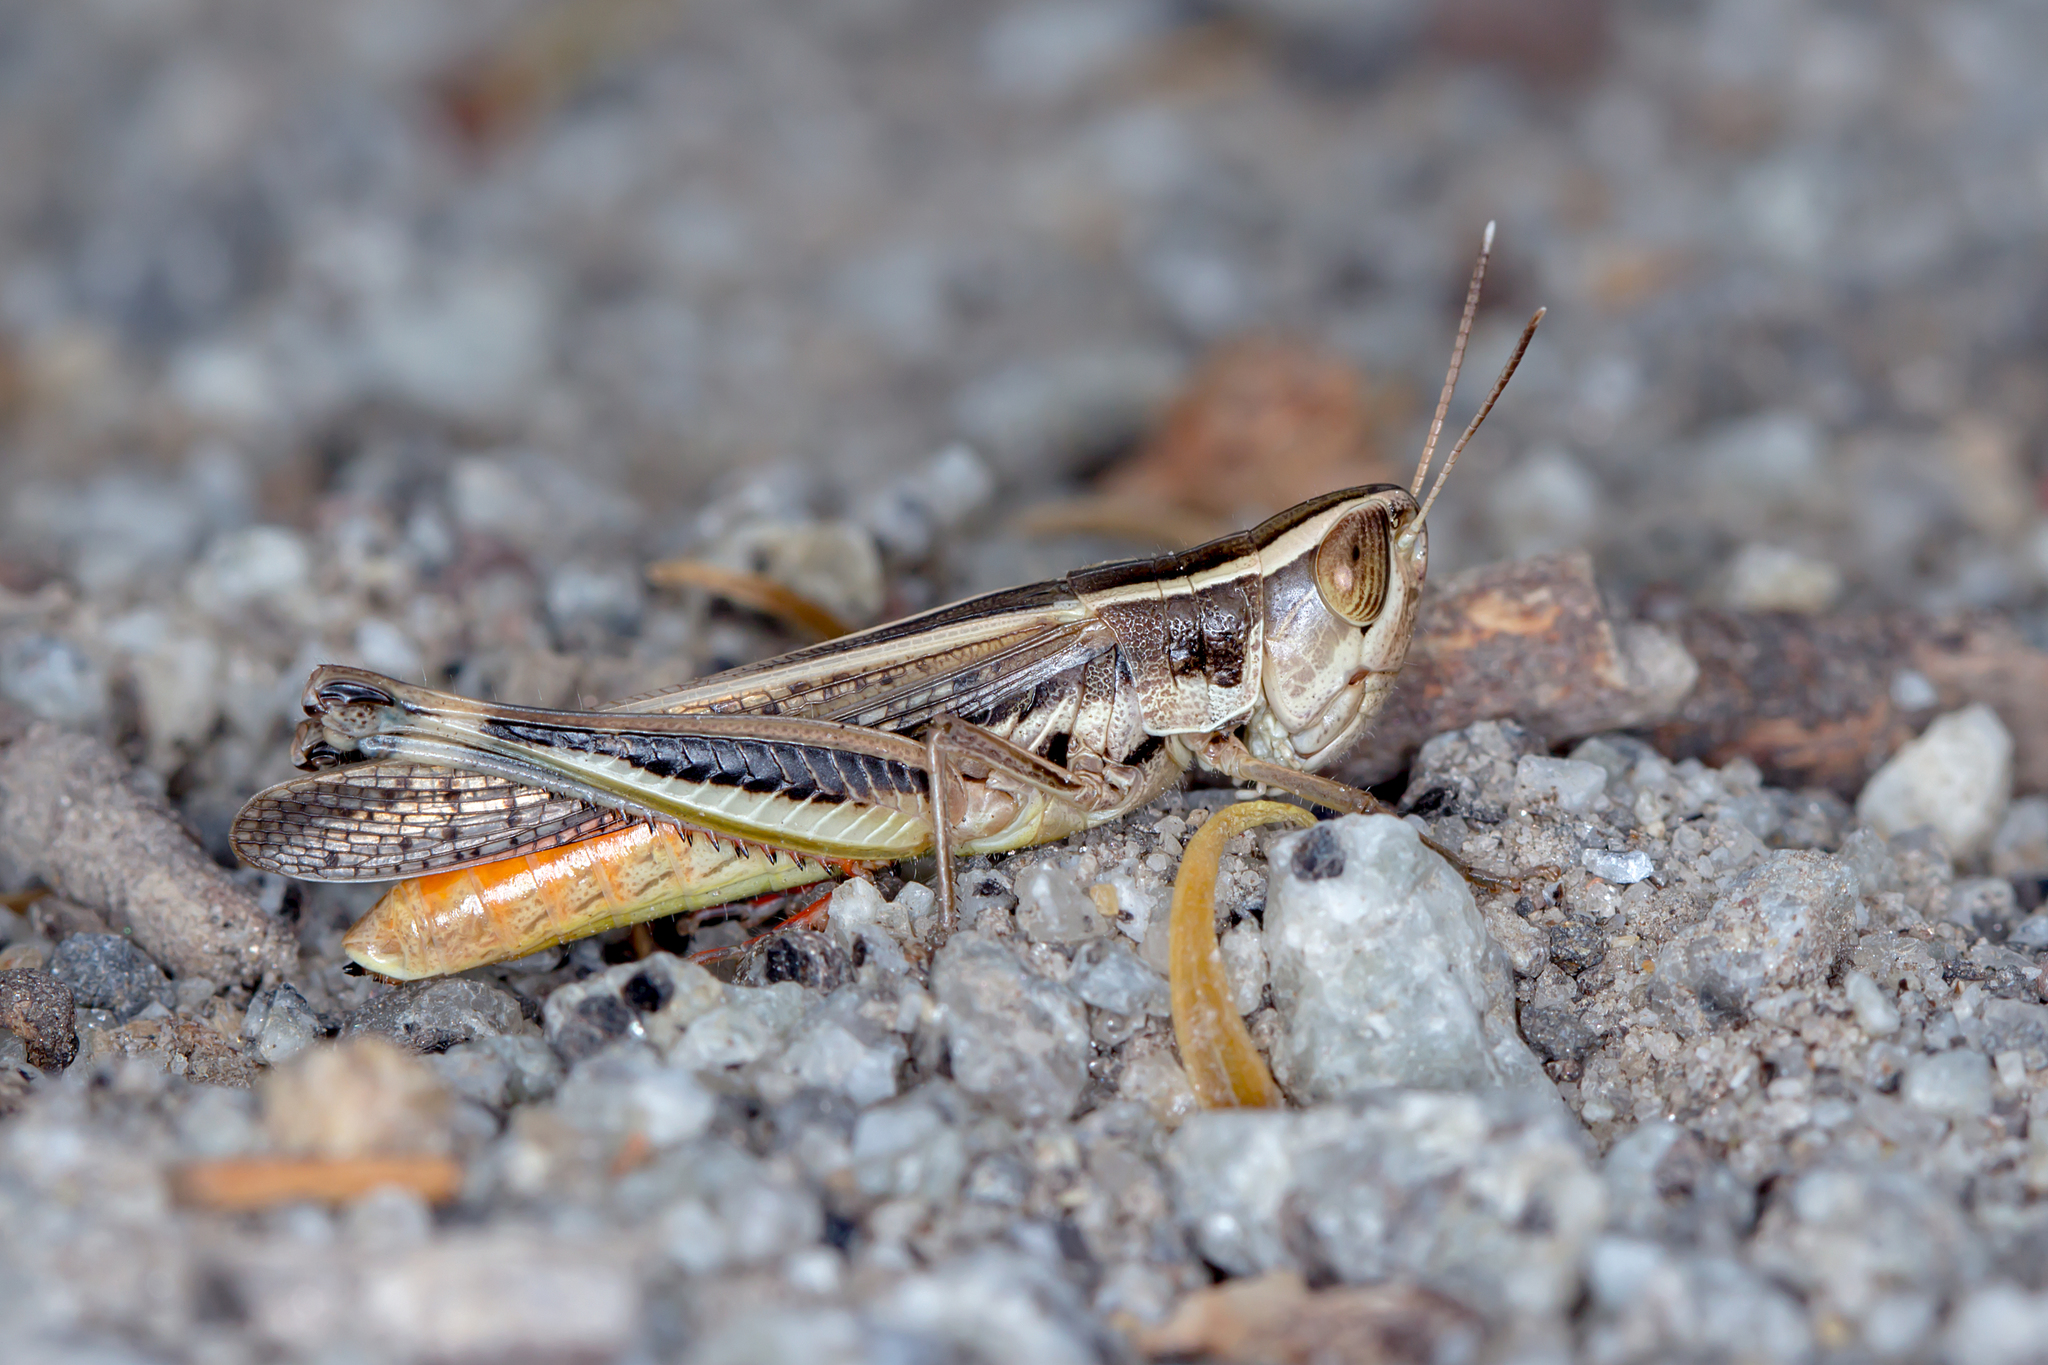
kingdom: Animalia
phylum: Arthropoda
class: Insecta
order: Orthoptera
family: Acrididae
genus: Macrotona
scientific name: Macrotona securiformis
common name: Inland macrotona
